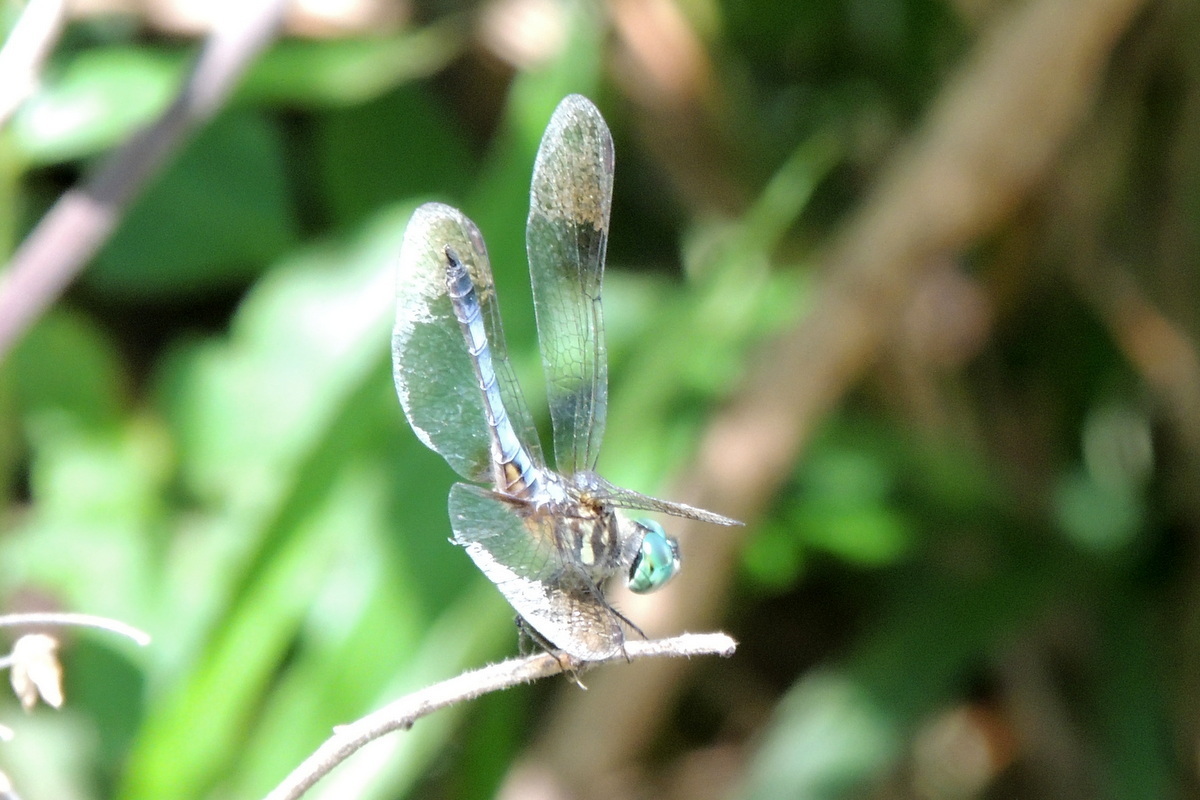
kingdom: Animalia
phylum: Arthropoda
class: Insecta
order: Odonata
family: Libellulidae
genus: Pachydiplax
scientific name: Pachydiplax longipennis
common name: Blue dasher
